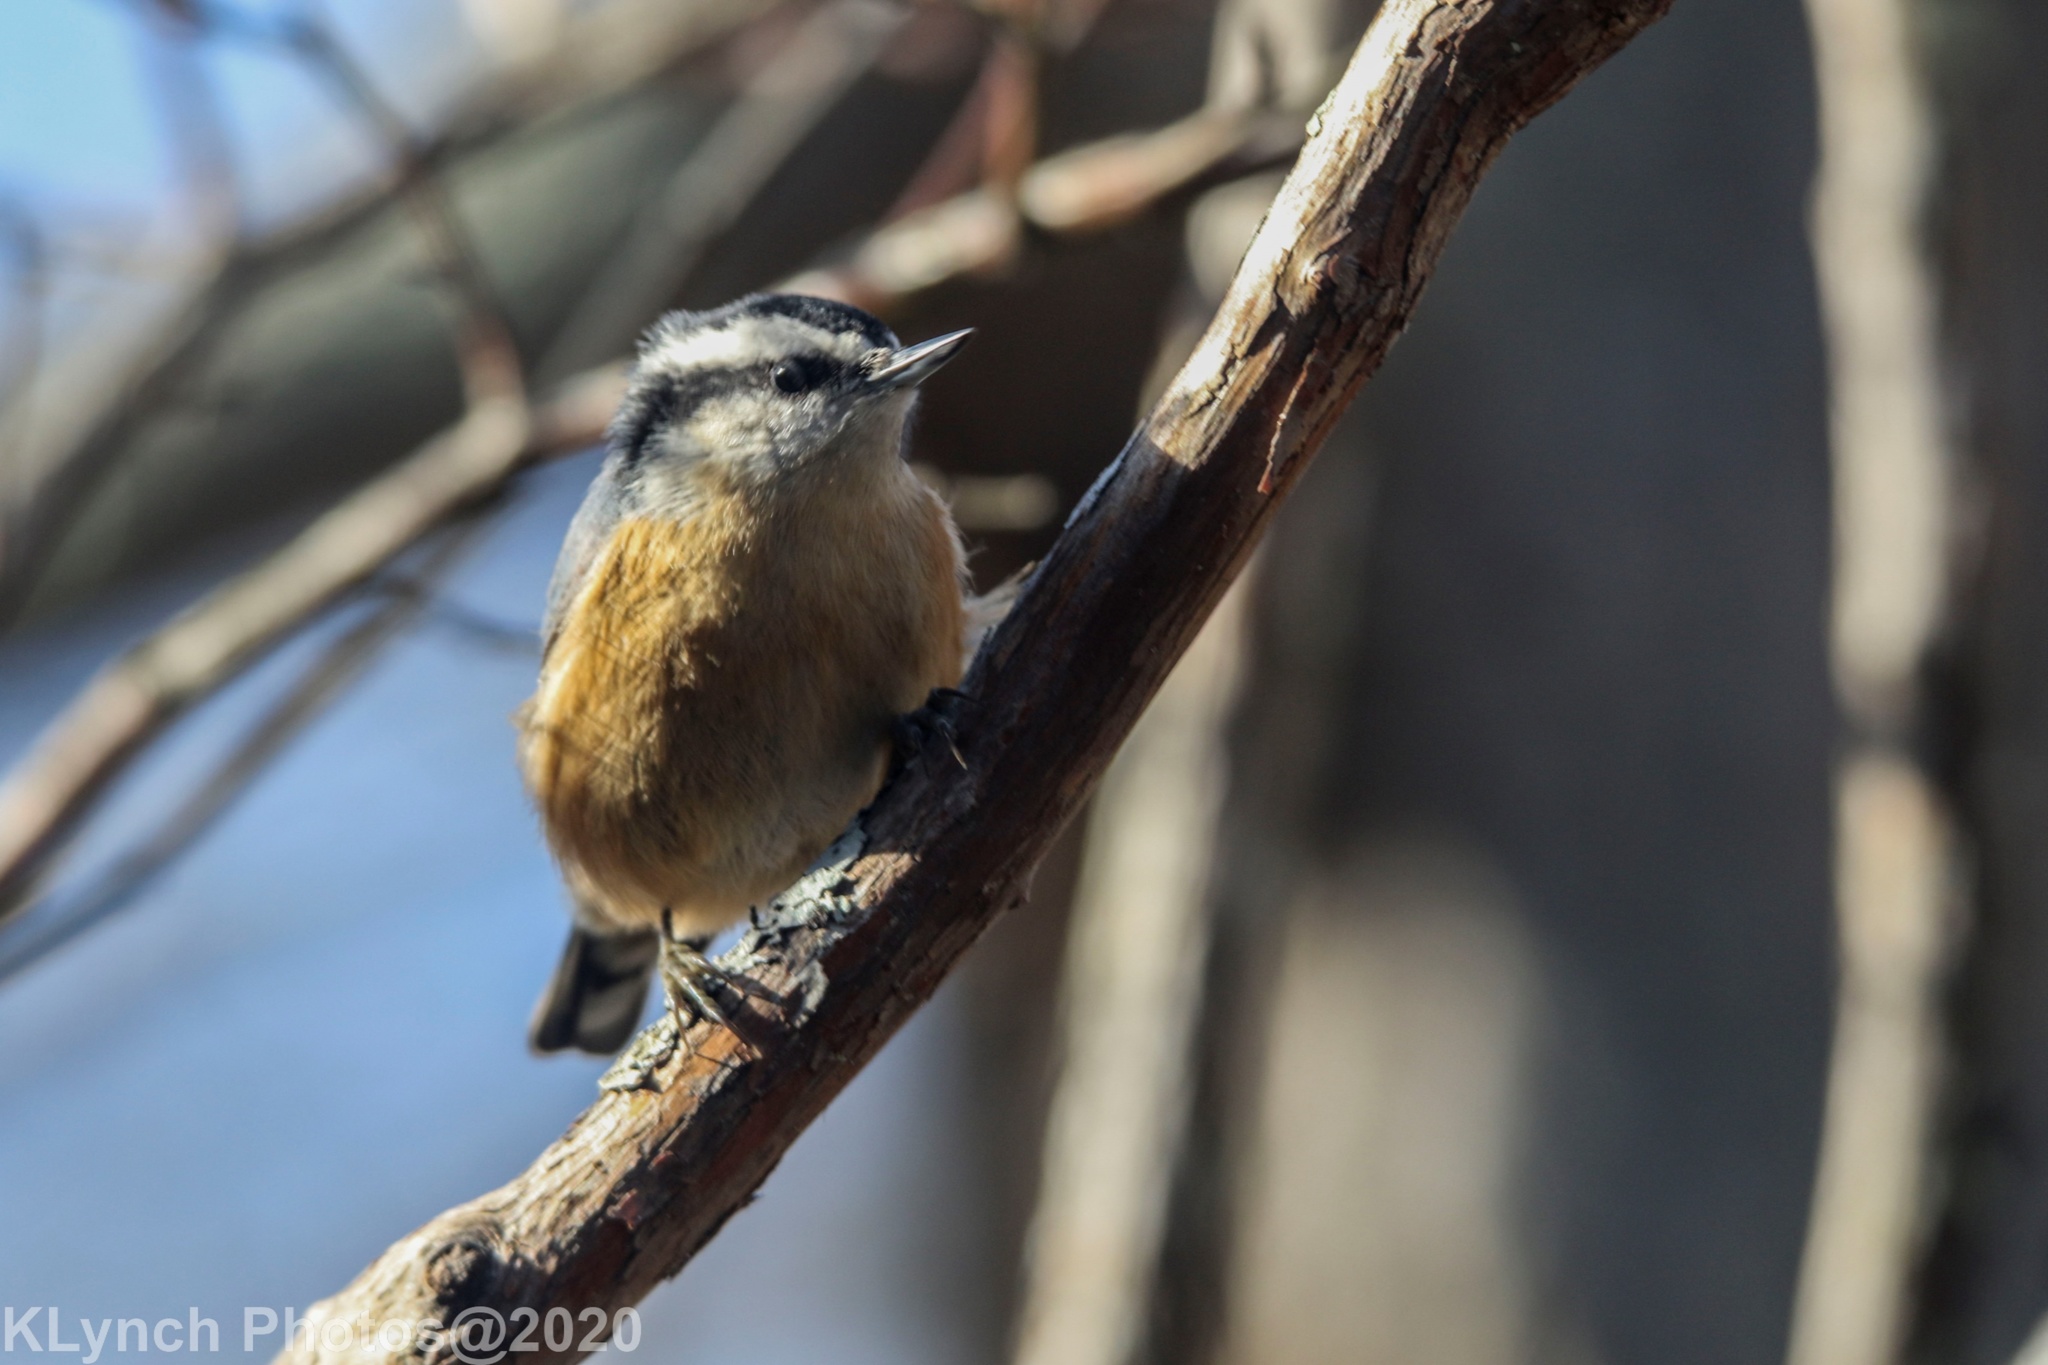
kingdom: Animalia
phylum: Chordata
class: Aves
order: Passeriformes
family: Sittidae
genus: Sitta
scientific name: Sitta canadensis
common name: Red-breasted nuthatch
